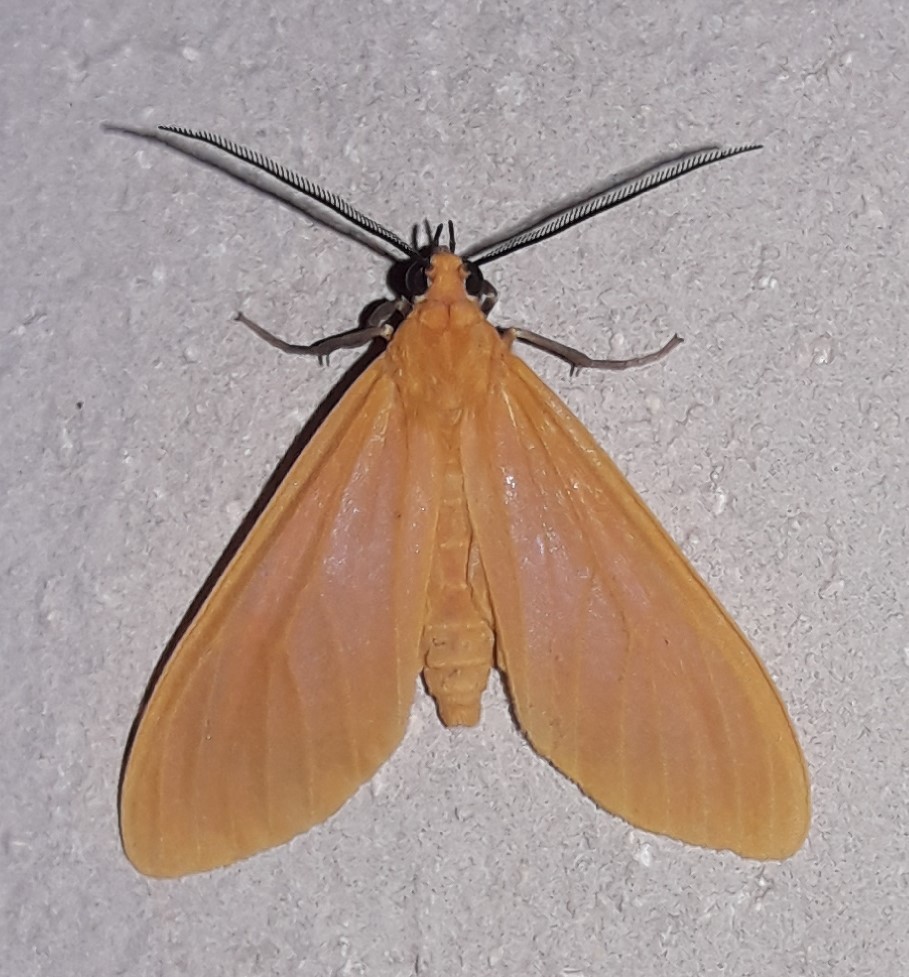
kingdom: Animalia
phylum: Arthropoda
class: Insecta
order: Lepidoptera
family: Erebidae
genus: Pteroodes
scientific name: Pteroodes
